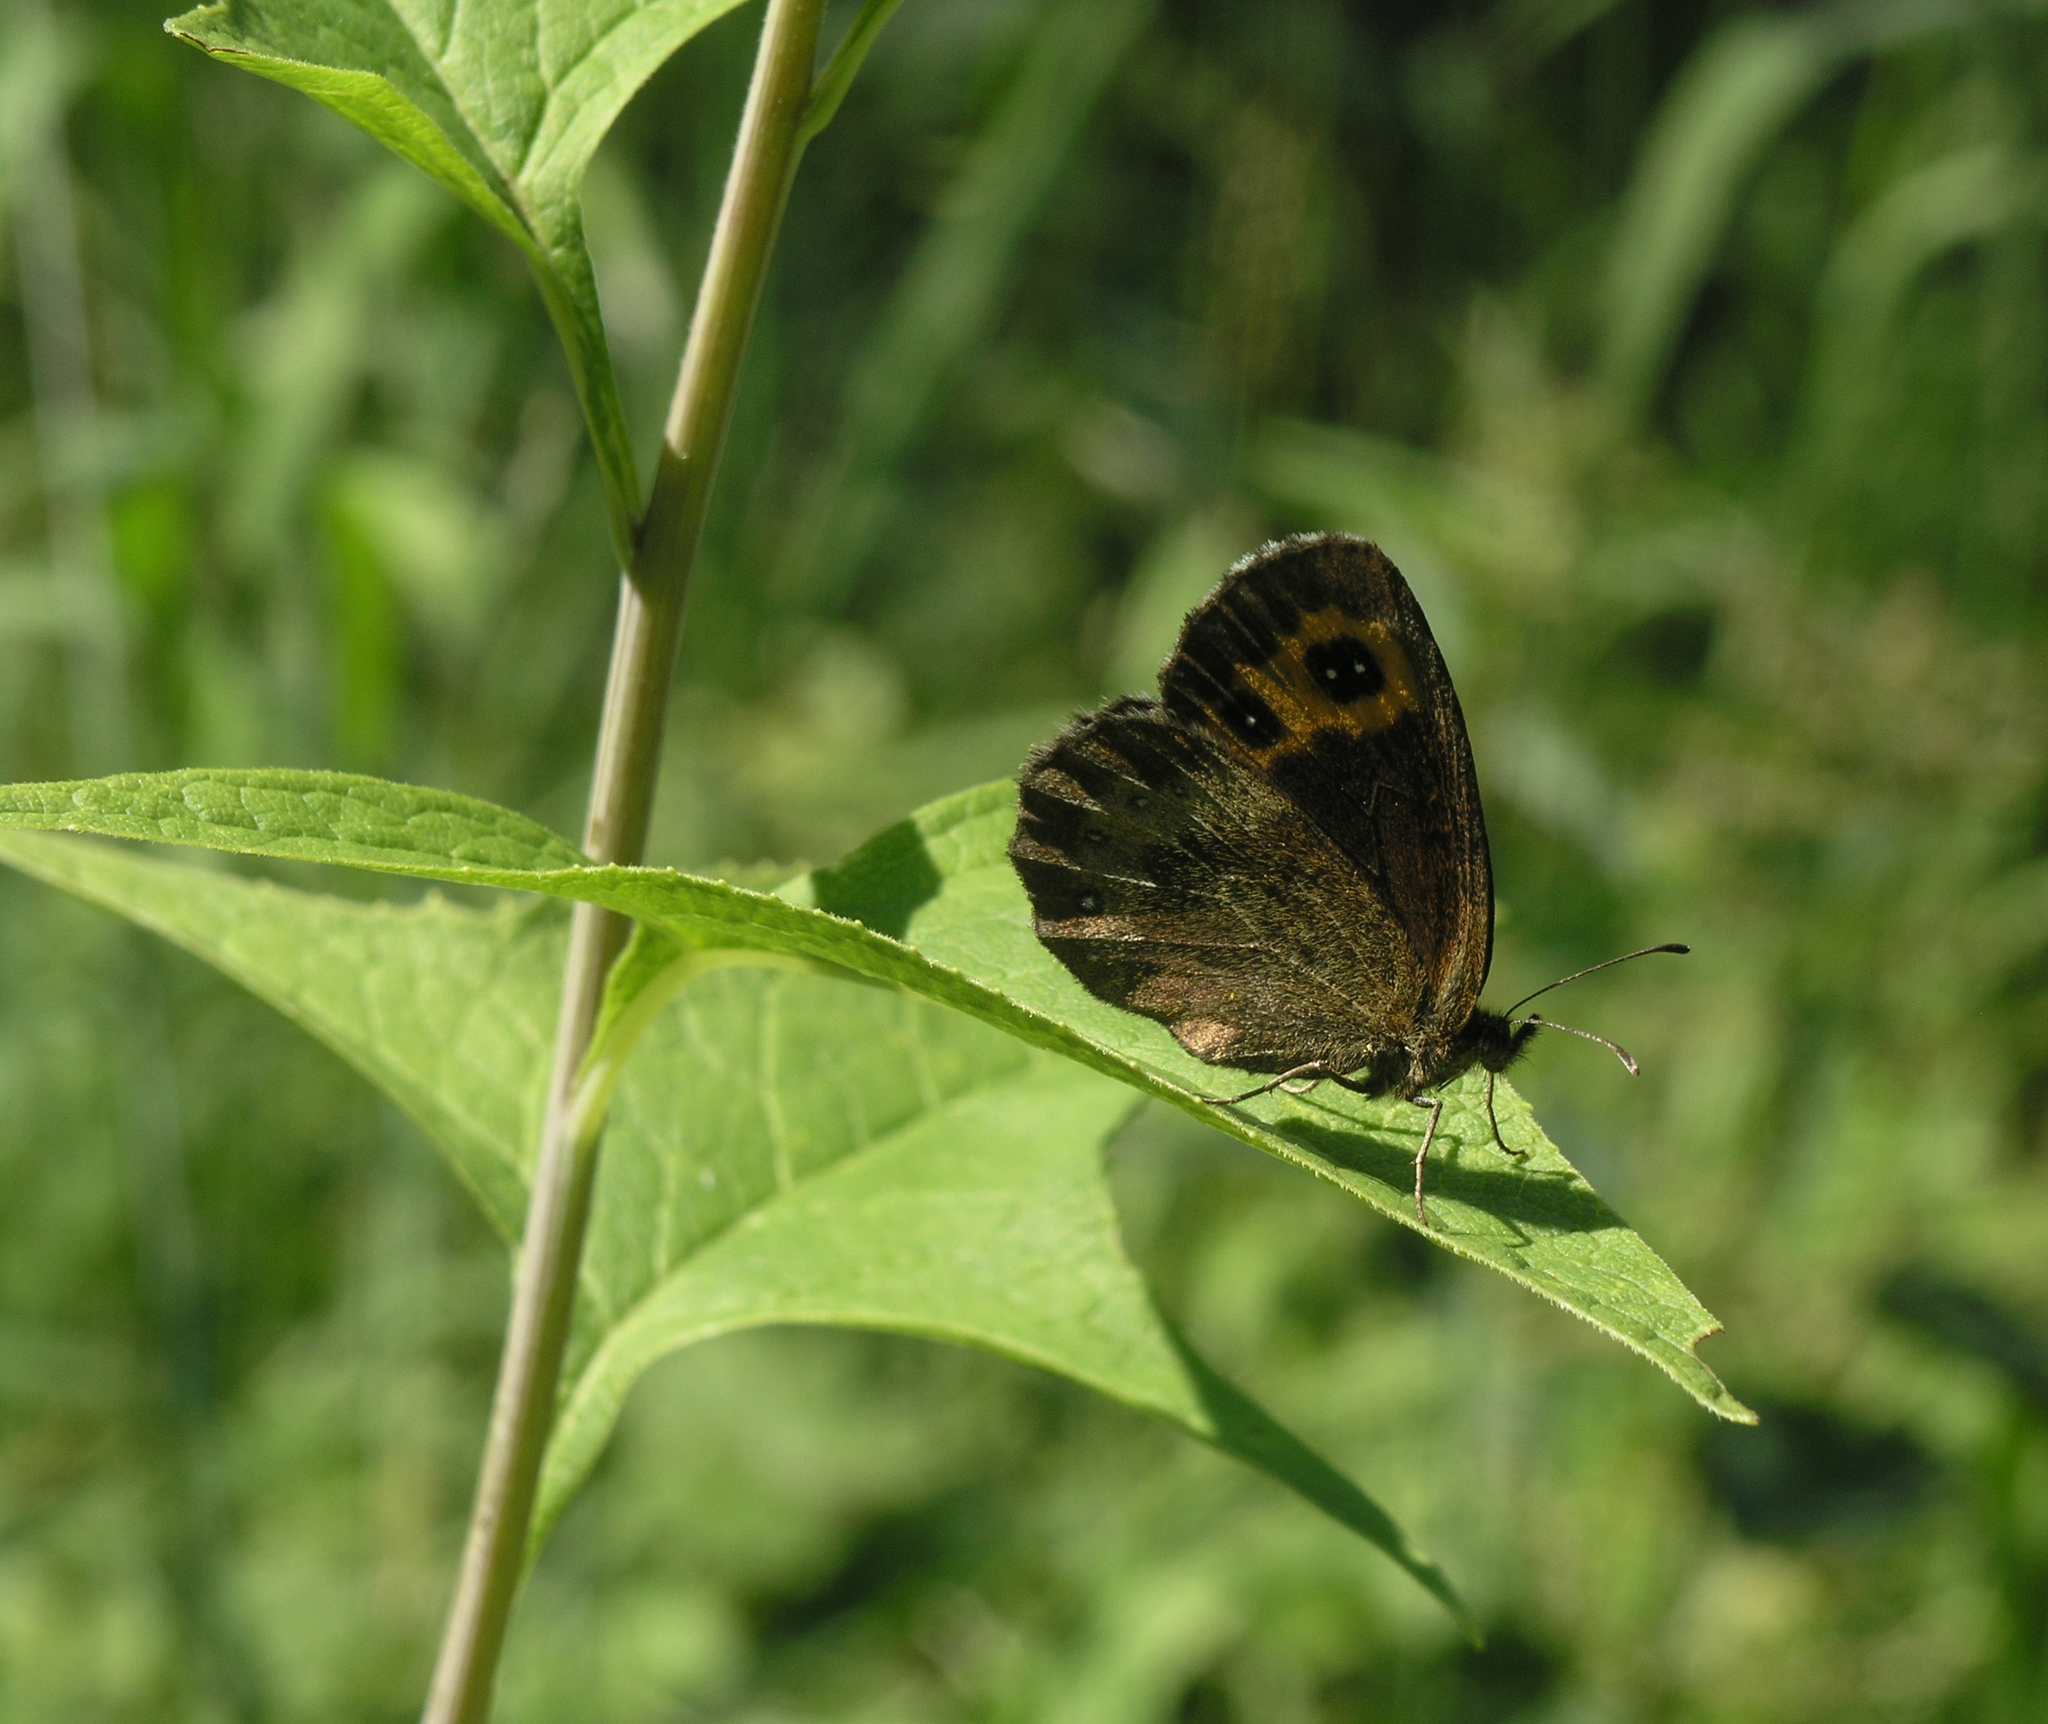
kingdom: Plantae
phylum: Tracheophyta
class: Magnoliopsida
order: Asterales
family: Asteraceae
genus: Parasenecio
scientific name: Parasenecio hastatus
